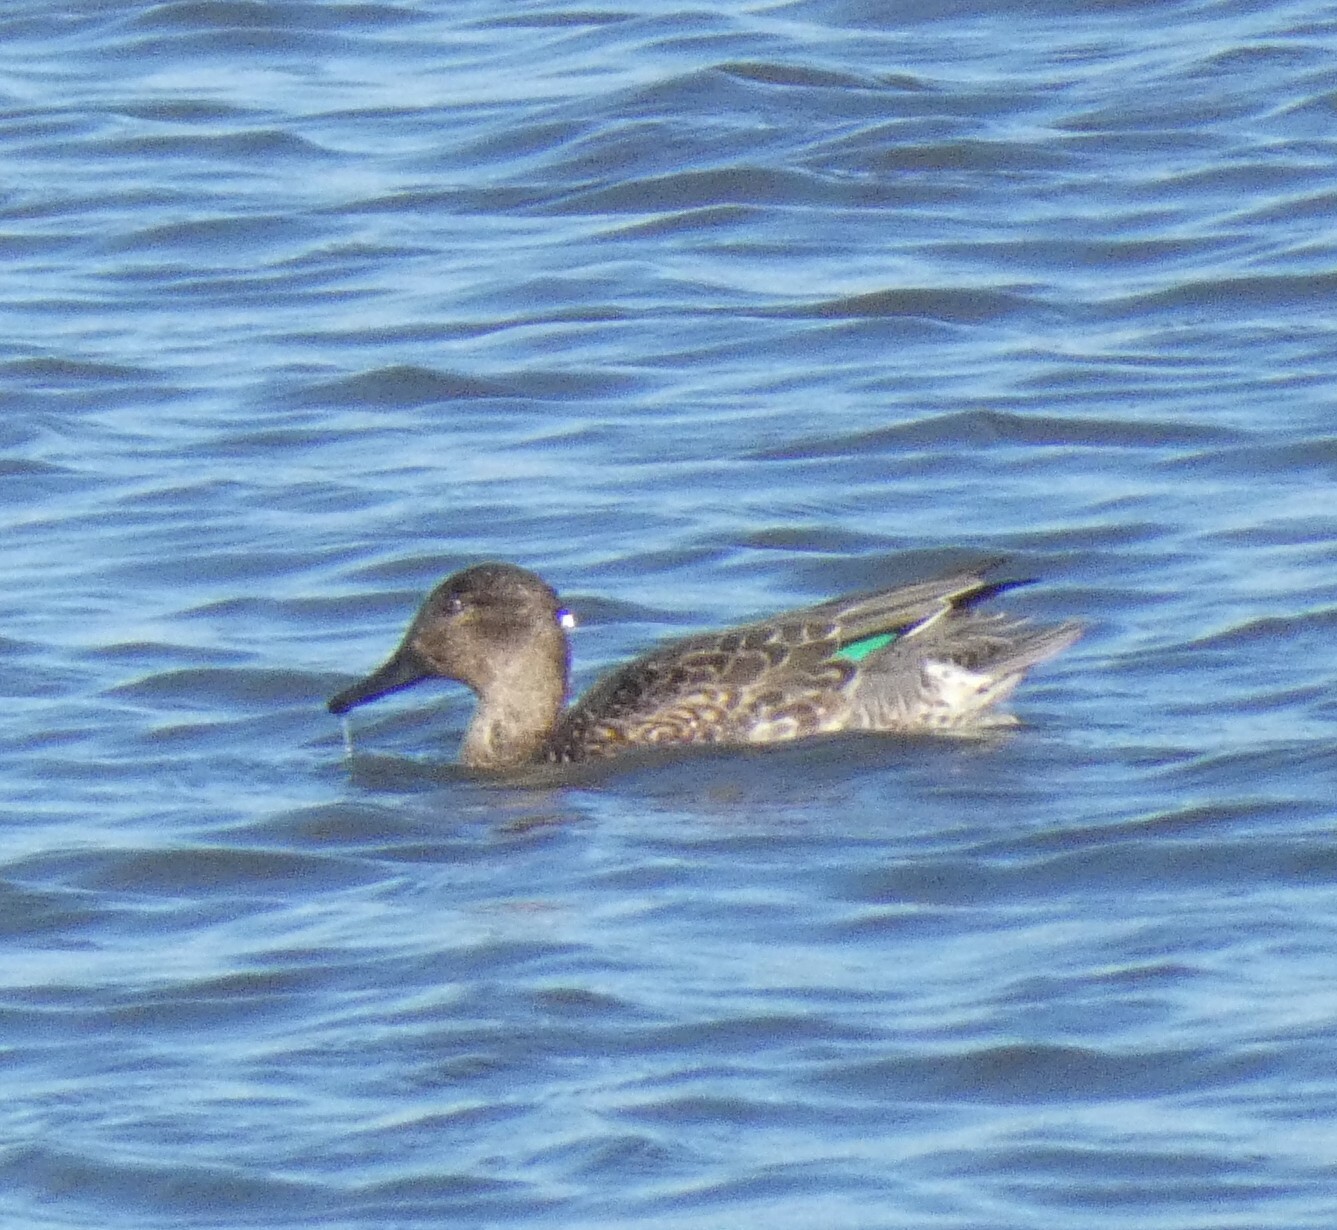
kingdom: Animalia
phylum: Chordata
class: Aves
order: Anseriformes
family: Anatidae
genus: Anas
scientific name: Anas crecca
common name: Eurasian teal
